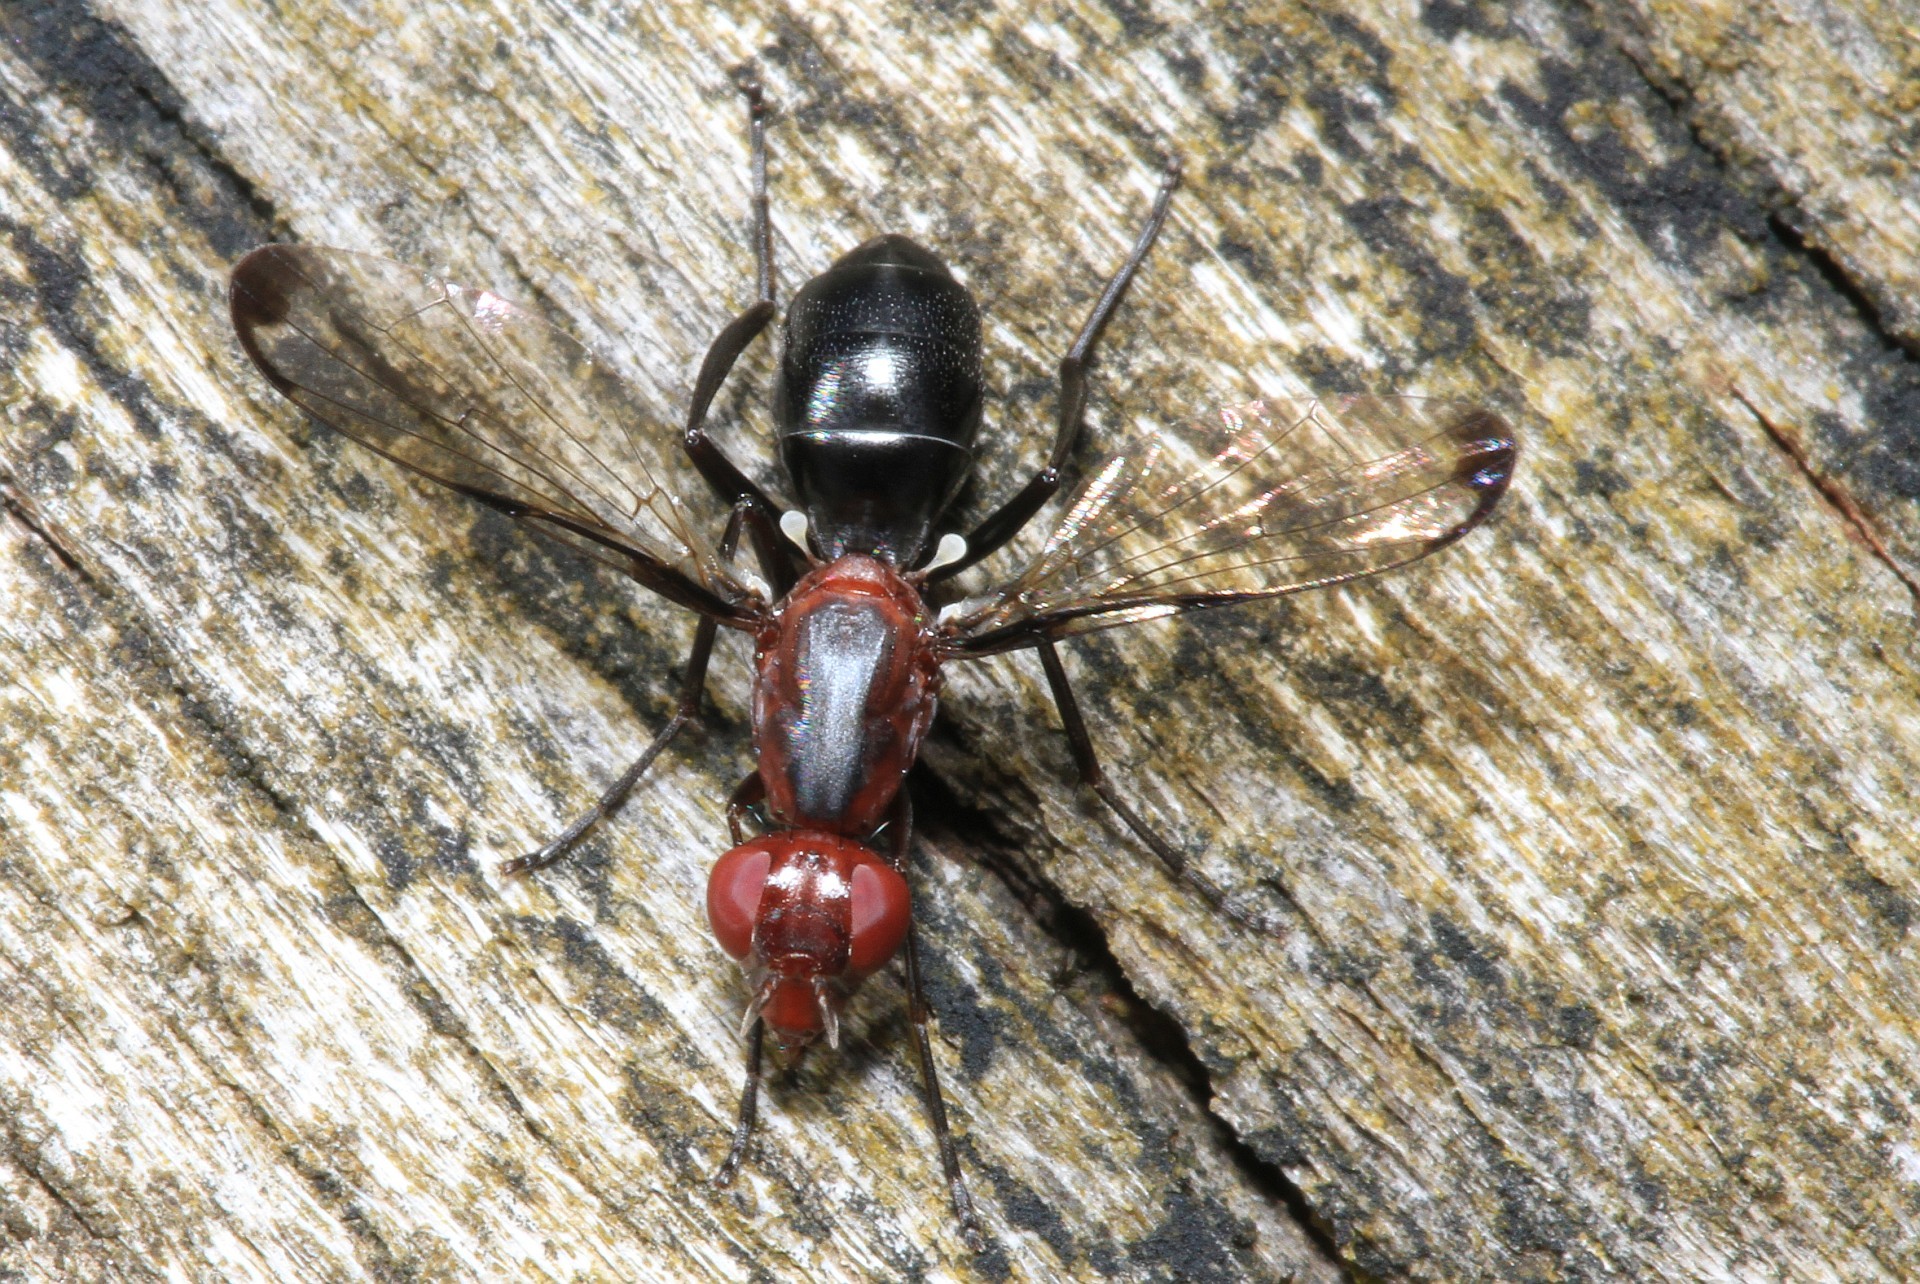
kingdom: Animalia
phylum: Arthropoda
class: Insecta
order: Diptera
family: Ulidiidae
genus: Cephalia
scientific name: Cephalia rufipes
